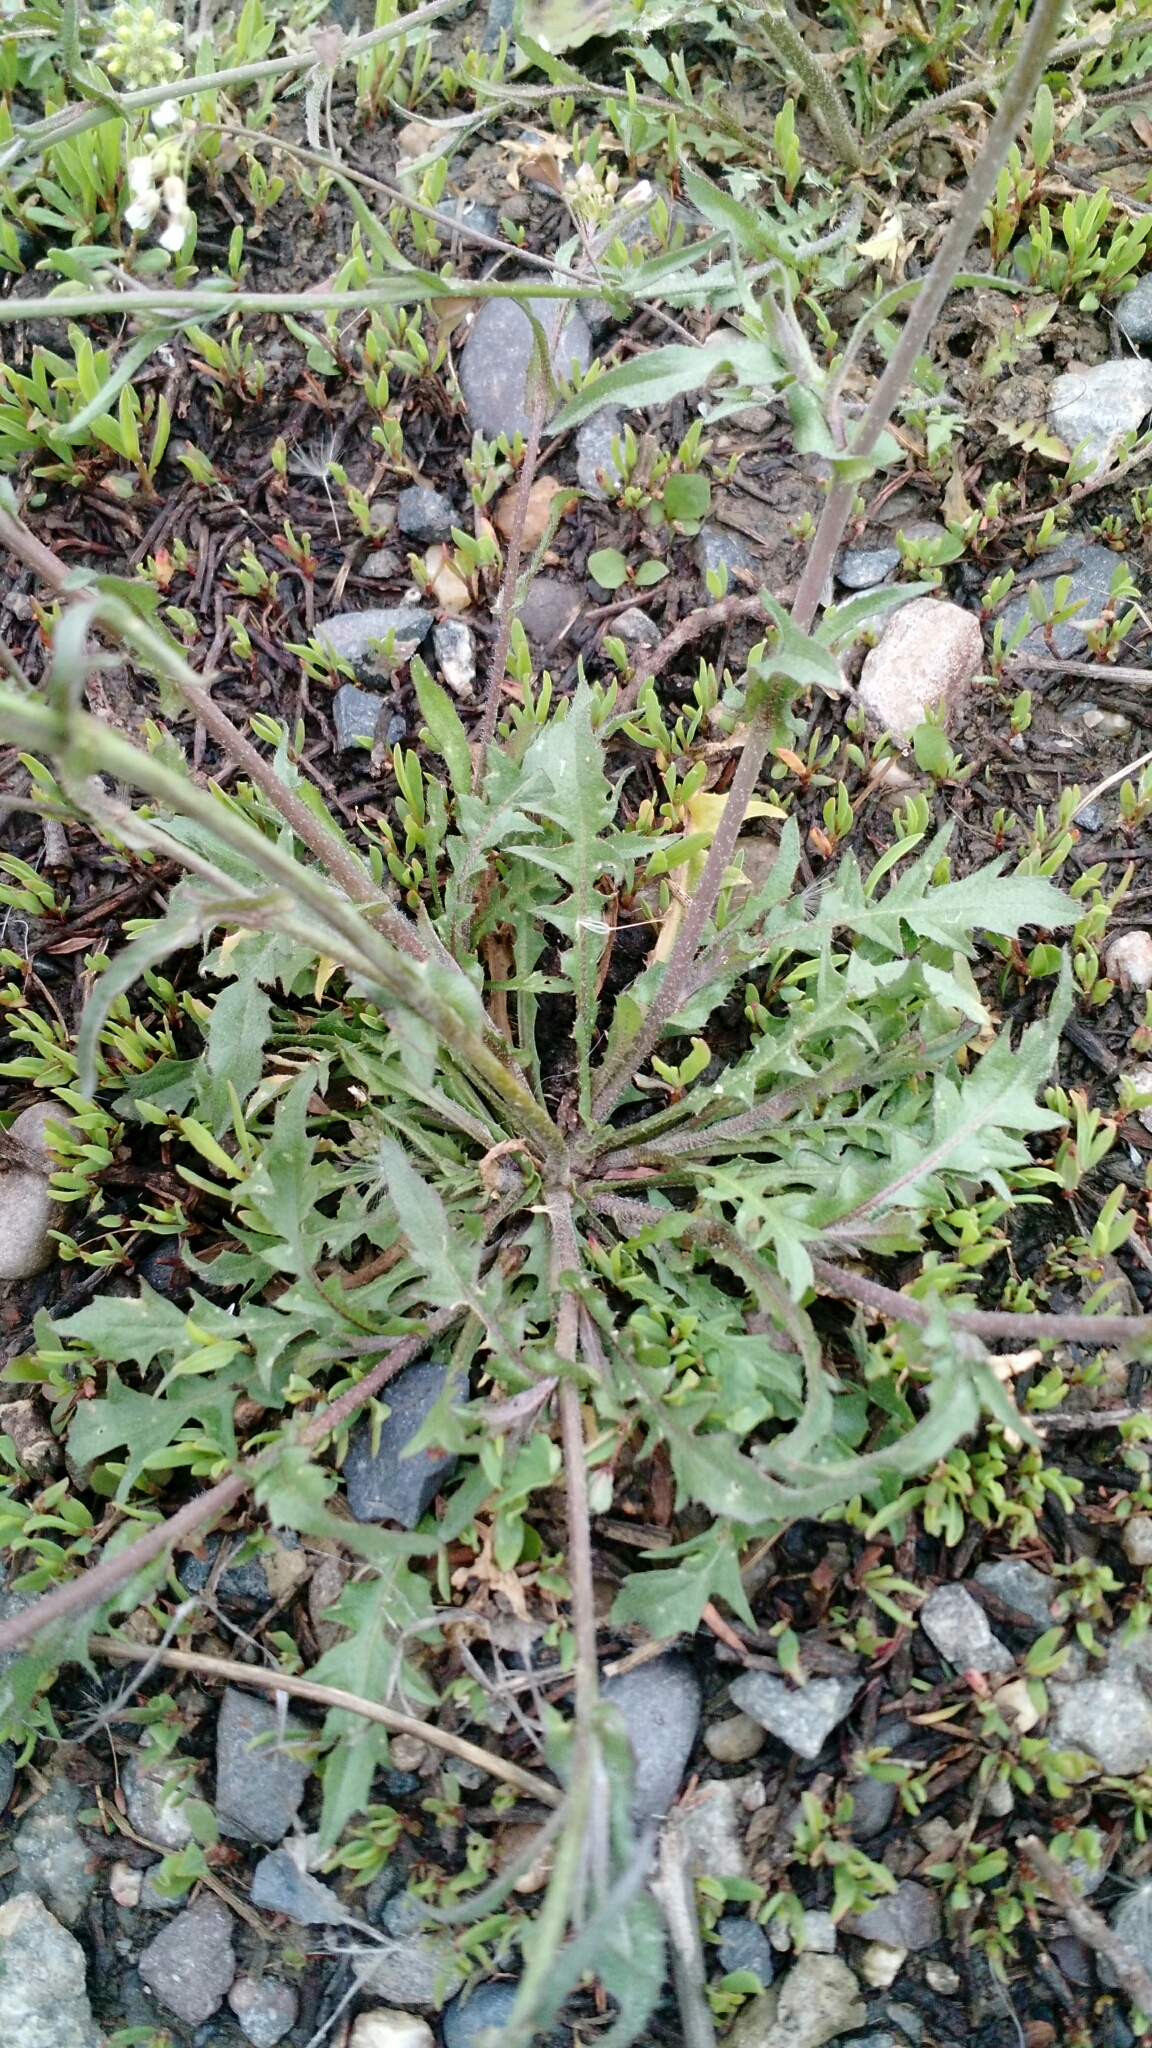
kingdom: Plantae
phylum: Tracheophyta
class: Magnoliopsida
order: Brassicales
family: Brassicaceae
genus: Capsella
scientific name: Capsella bursa-pastoris
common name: Shepherd's purse
